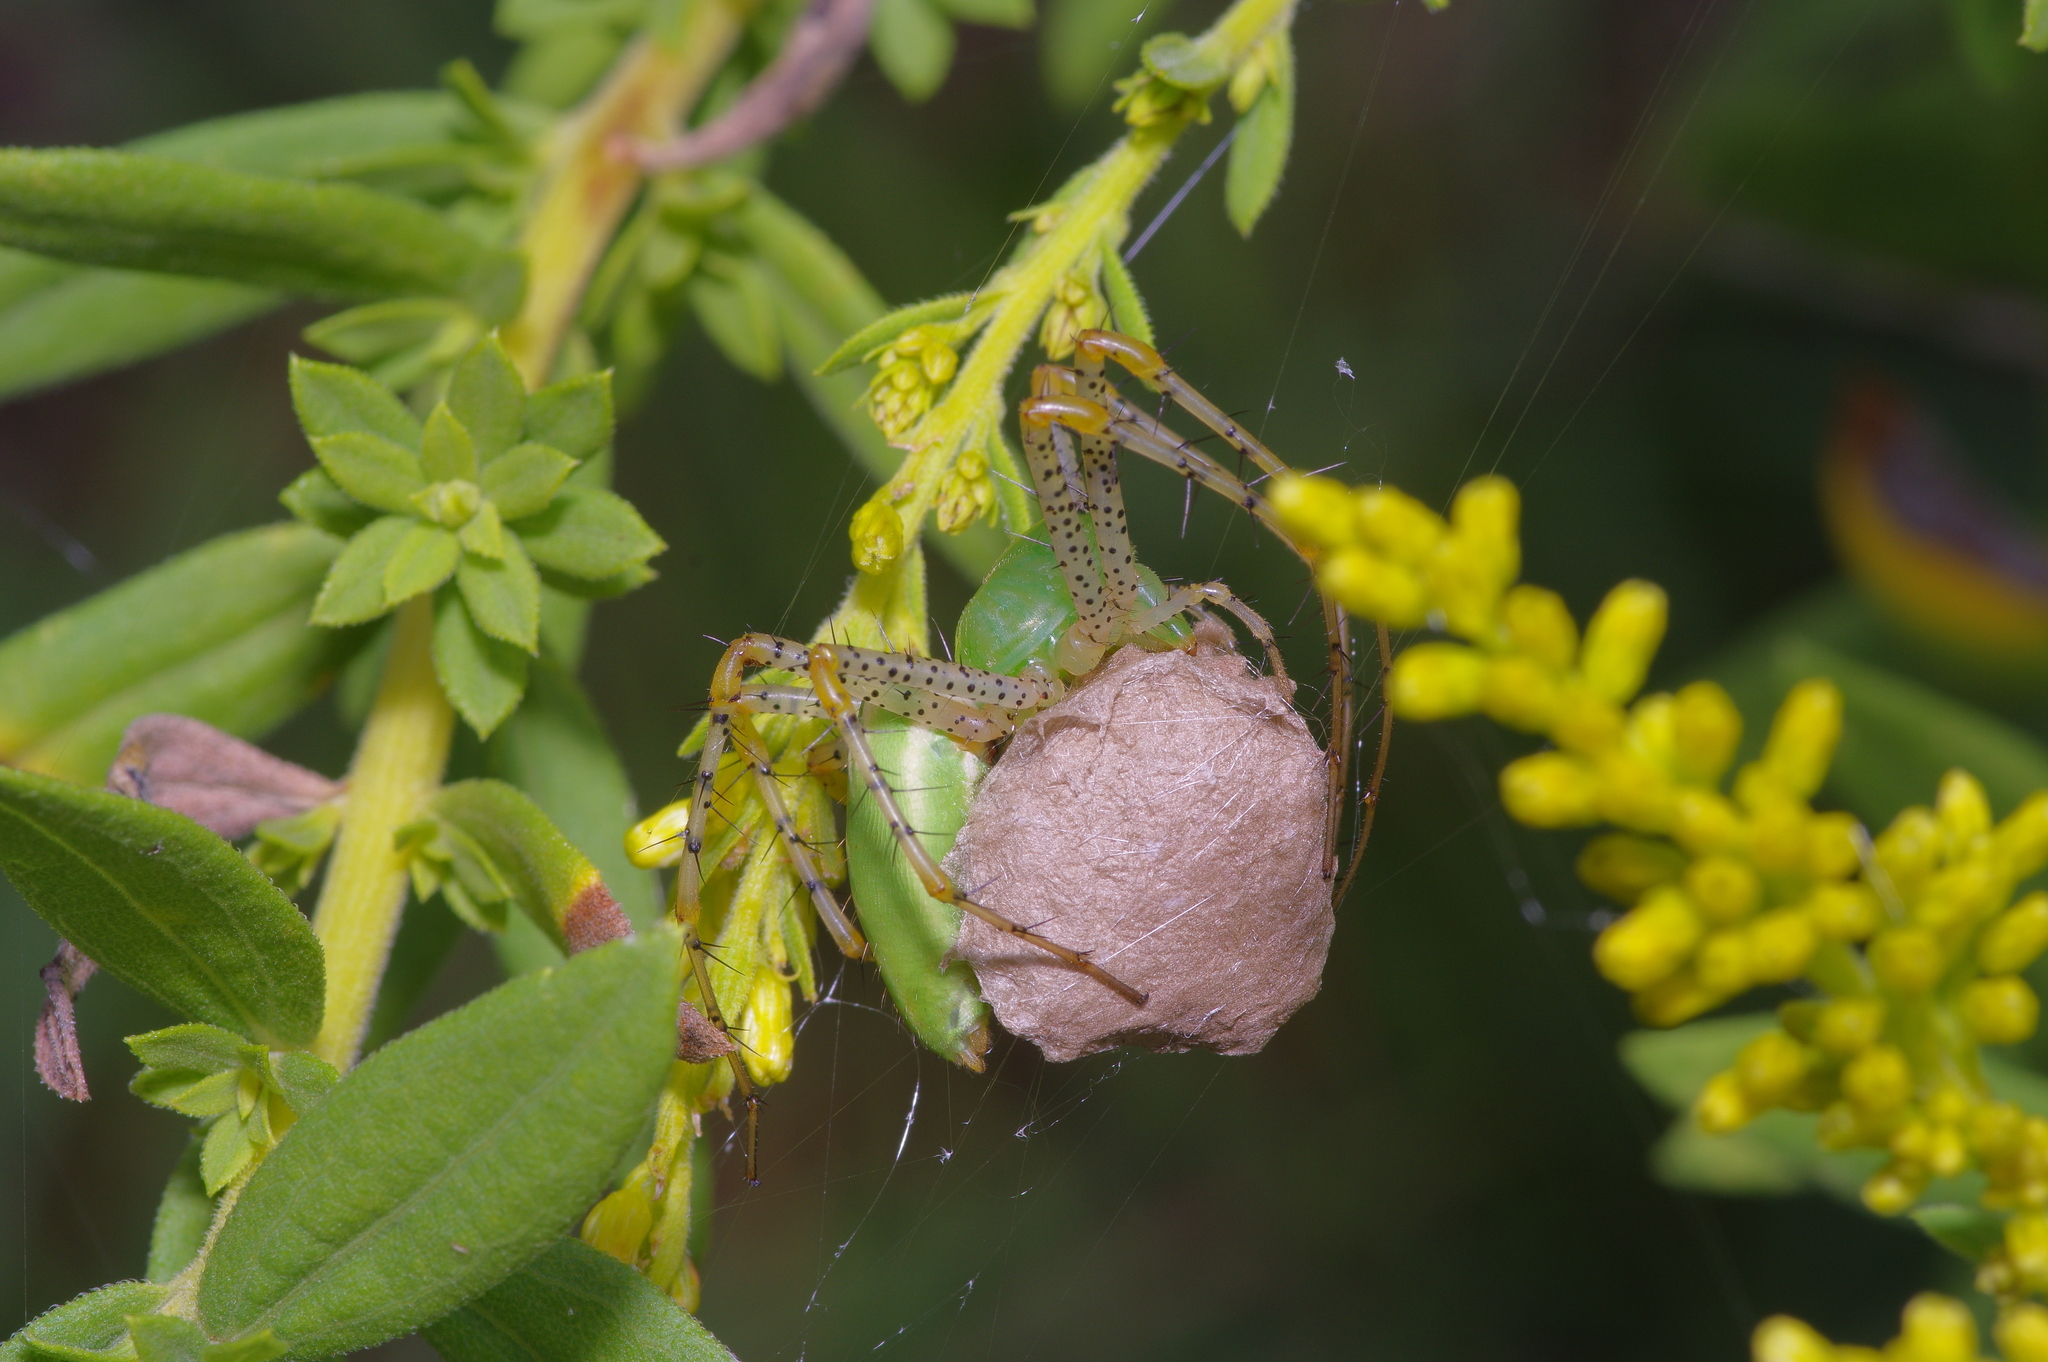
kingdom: Animalia
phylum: Arthropoda
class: Arachnida
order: Araneae
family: Oxyopidae
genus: Peucetia
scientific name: Peucetia viridans
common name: Lynx spiders
